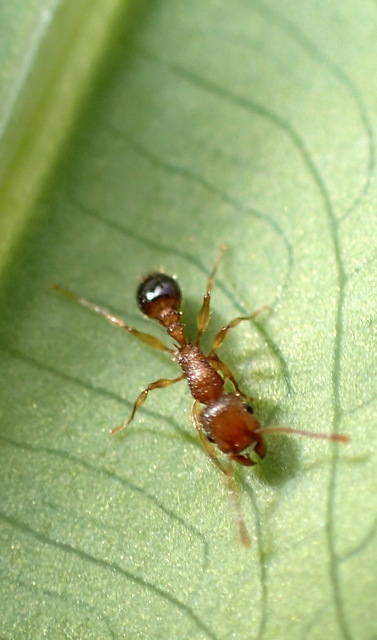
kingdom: Animalia
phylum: Arthropoda
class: Insecta
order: Hymenoptera
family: Formicidae
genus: Tetramorium
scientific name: Tetramorium bicarinatum
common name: Guinea ant
